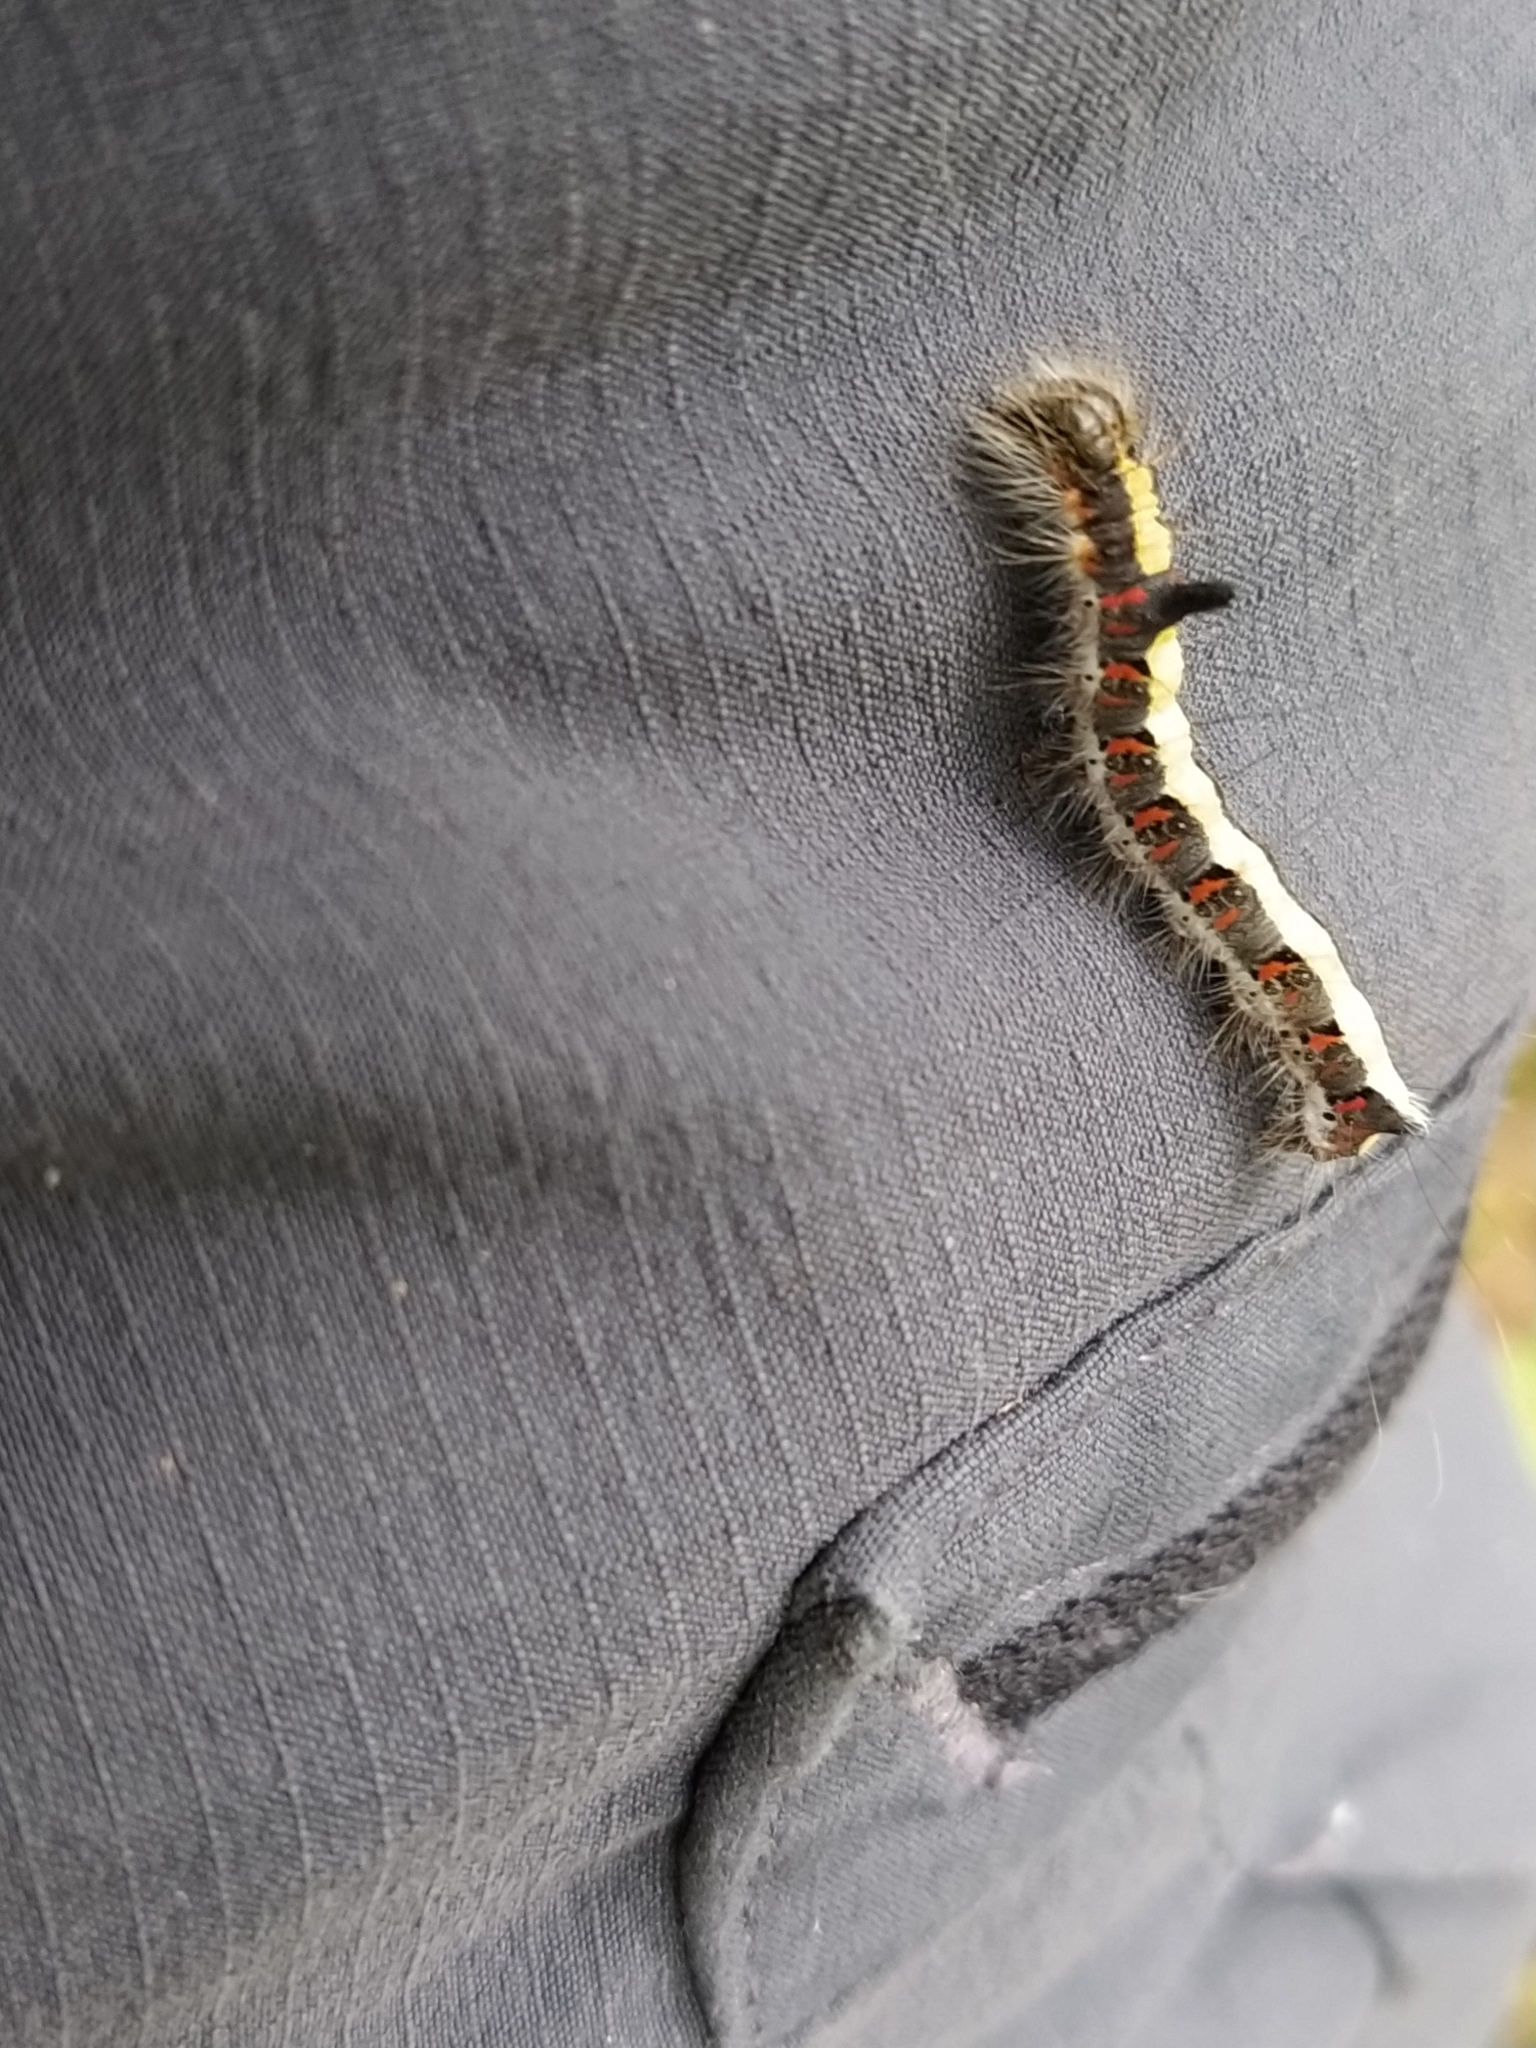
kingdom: Animalia
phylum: Arthropoda
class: Insecta
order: Lepidoptera
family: Noctuidae
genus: Acronicta
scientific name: Acronicta psi
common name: Grey dagger
